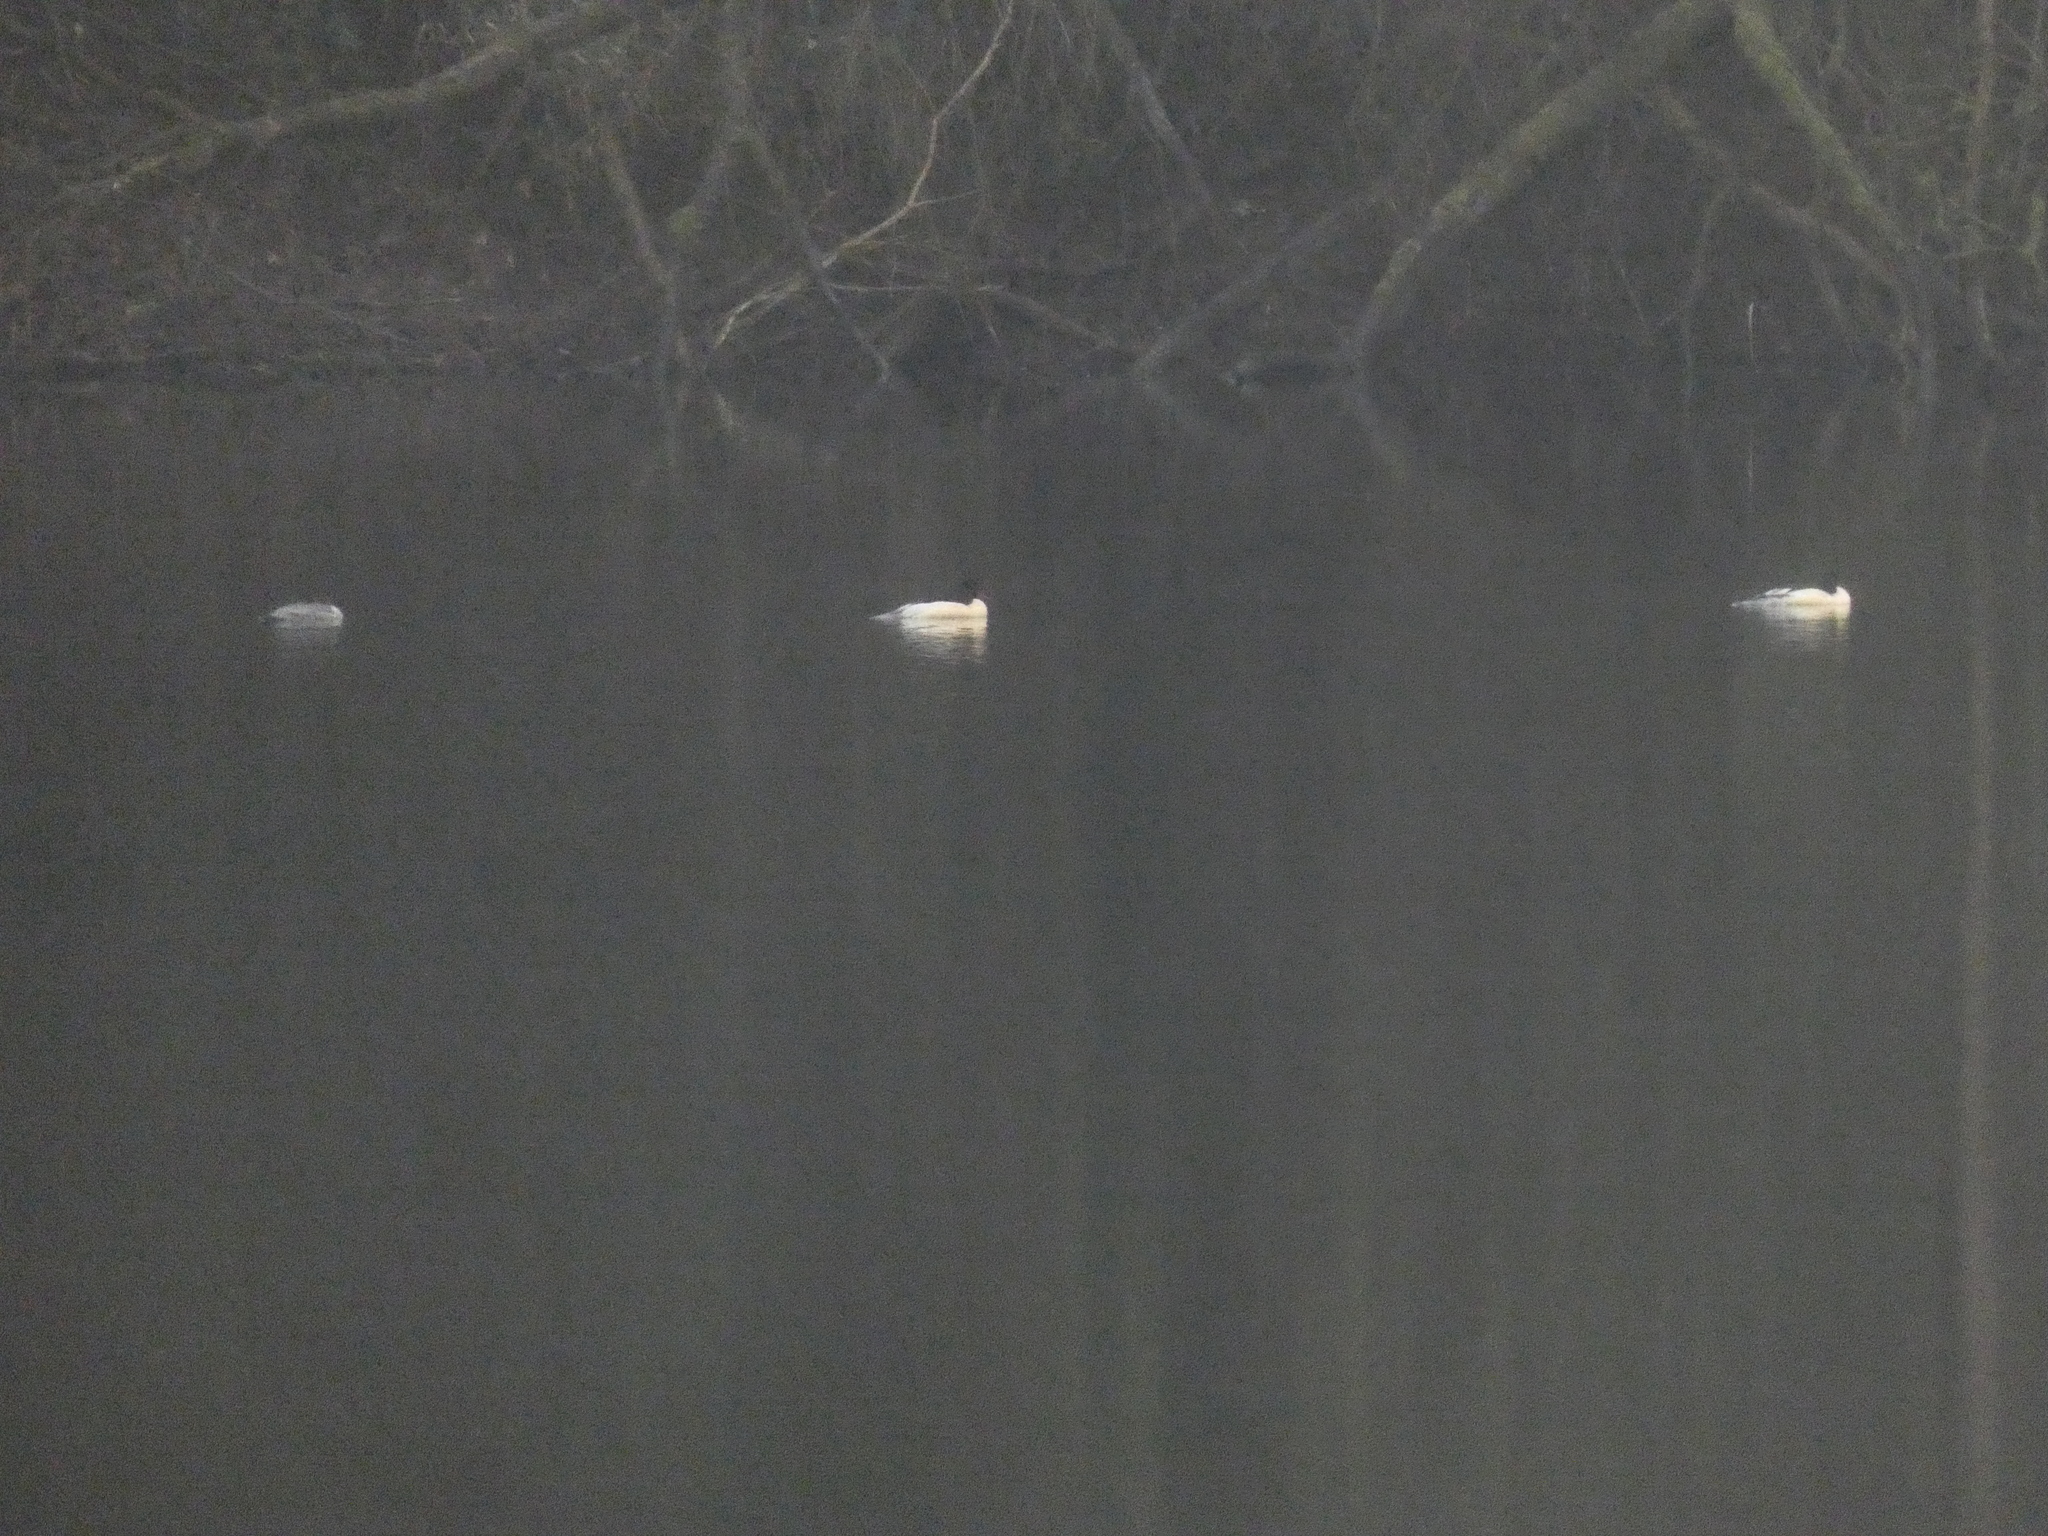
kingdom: Animalia
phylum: Chordata
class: Aves
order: Anseriformes
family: Anatidae
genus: Mergus
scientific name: Mergus merganser
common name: Common merganser
